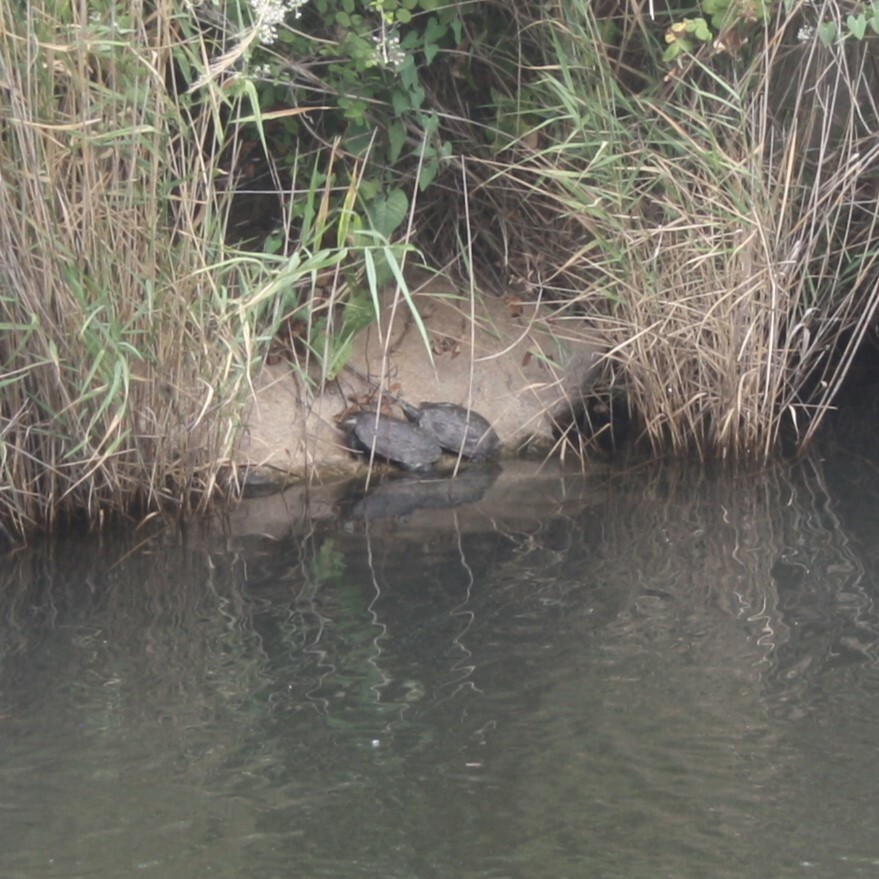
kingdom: Animalia
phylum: Chordata
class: Testudines
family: Geoemydidae
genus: Mauremys
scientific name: Mauremys rivulata
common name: Western caspian turtle
